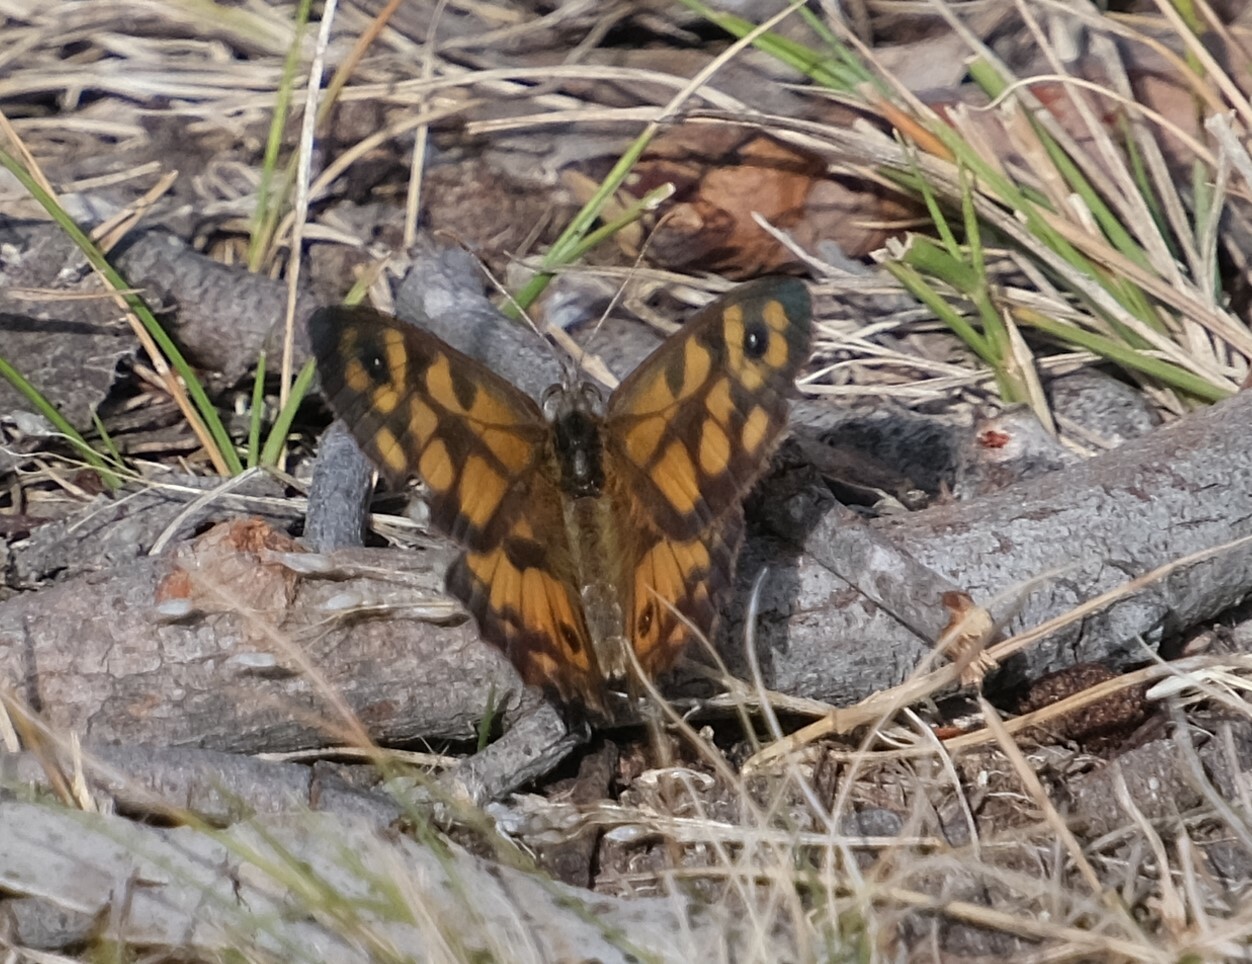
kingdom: Animalia
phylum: Arthropoda
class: Insecta
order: Lepidoptera
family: Nymphalidae
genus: Geitoneura
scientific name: Geitoneura klugii
